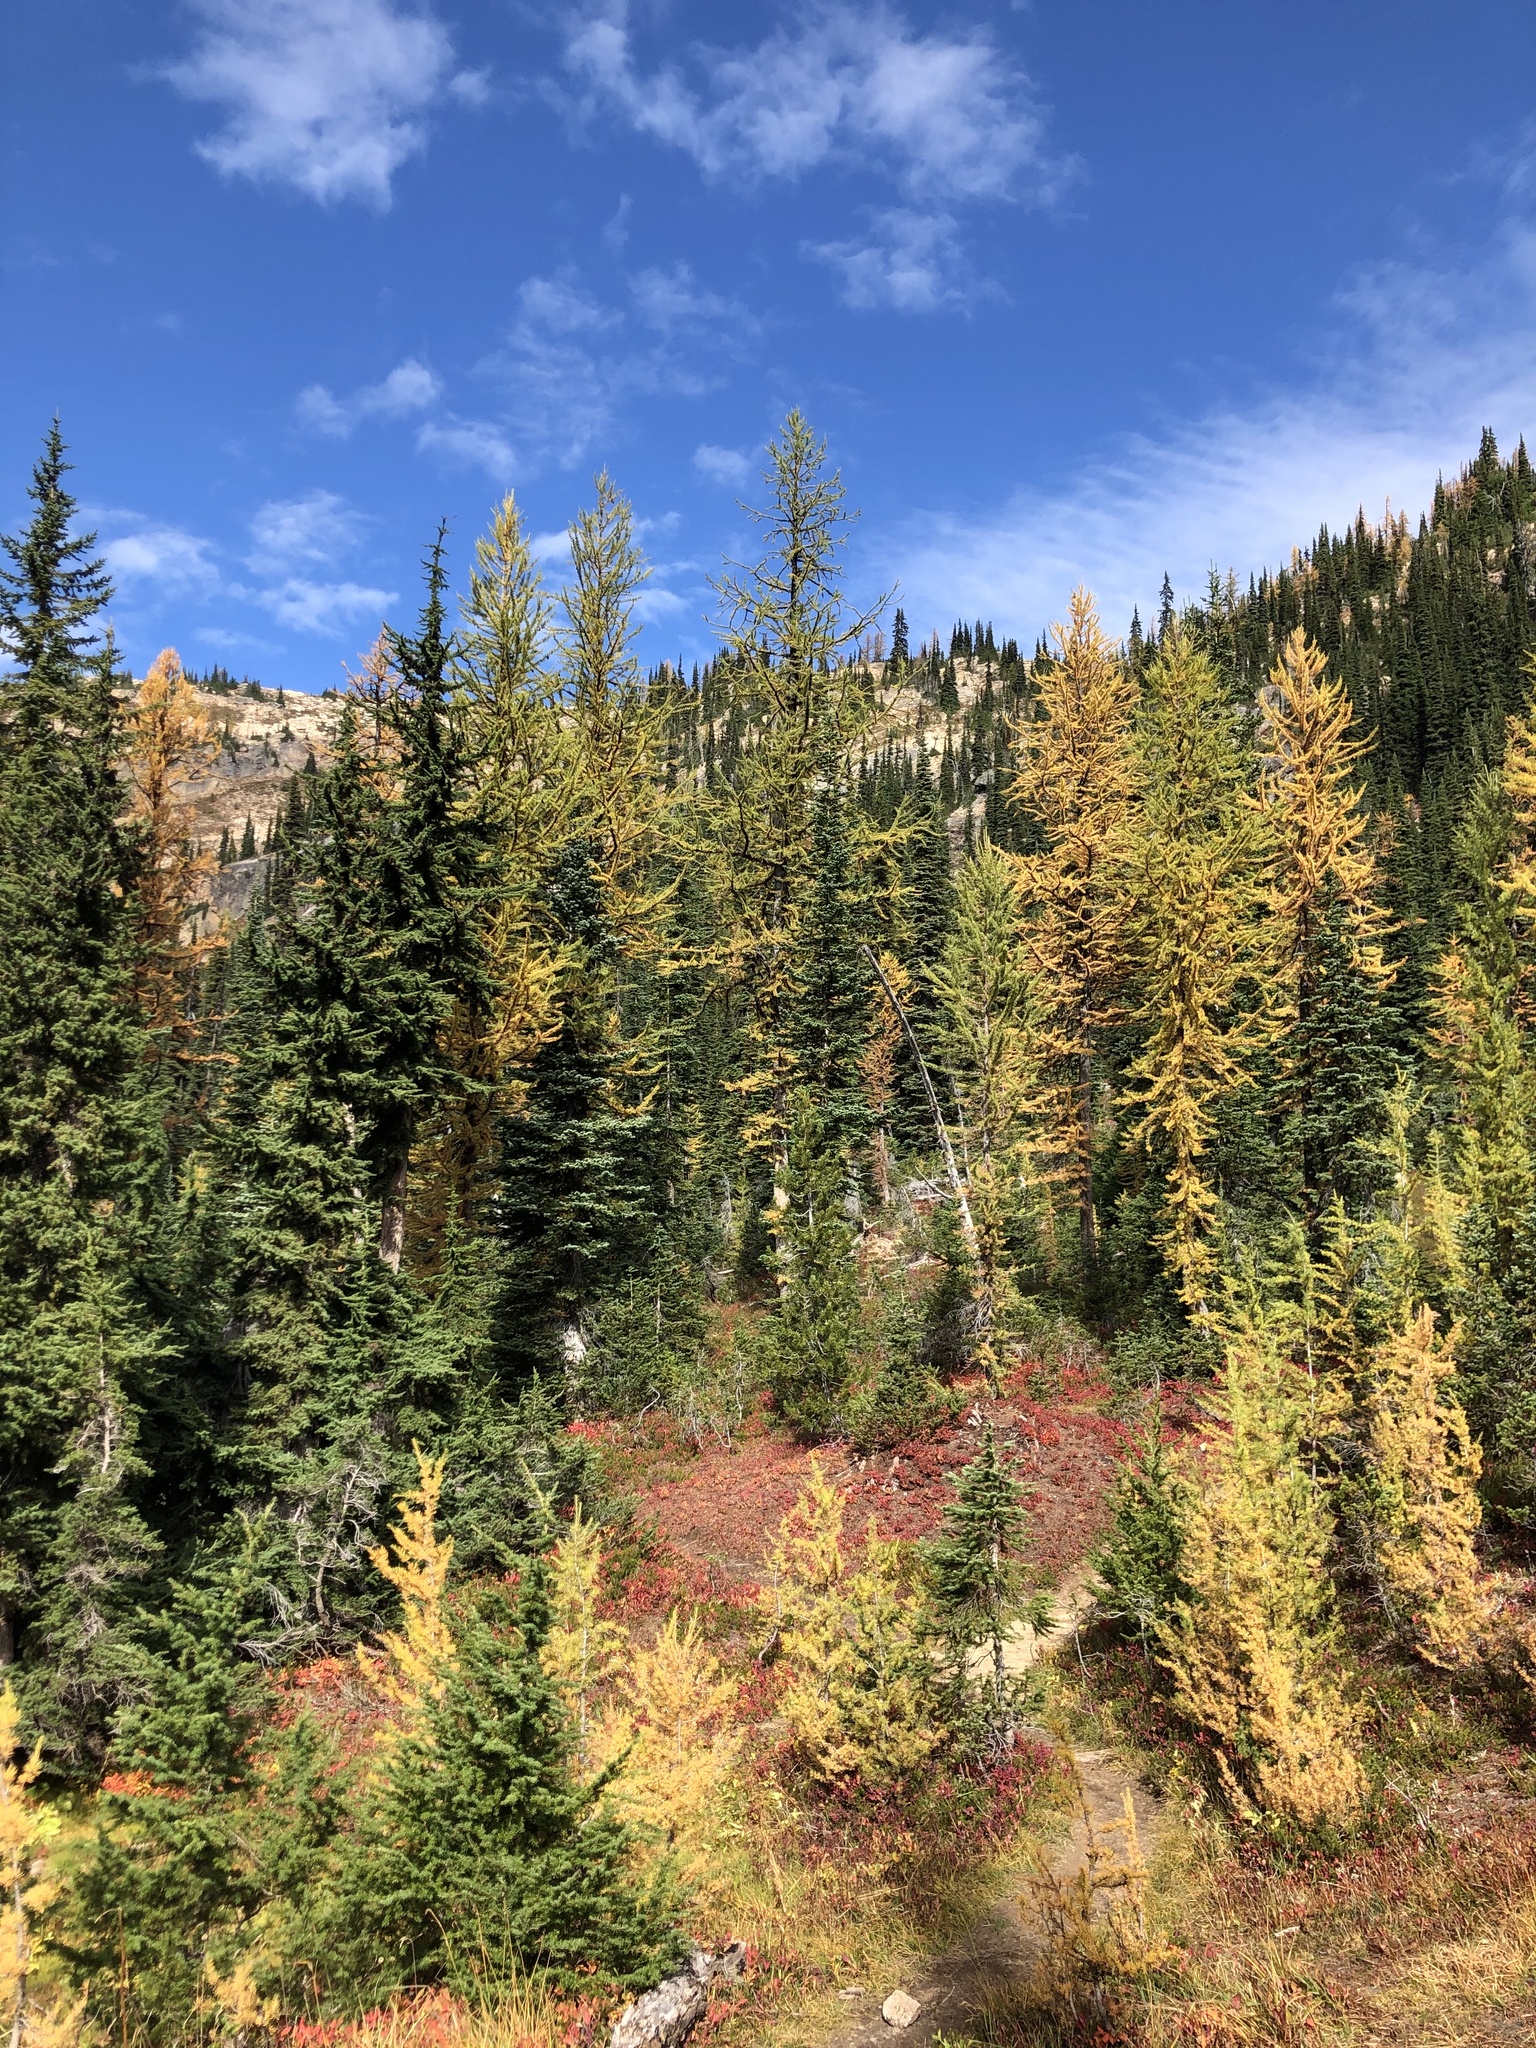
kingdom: Plantae
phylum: Tracheophyta
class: Pinopsida
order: Pinales
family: Pinaceae
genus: Picea
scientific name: Picea engelmannii
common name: Engelmann spruce
